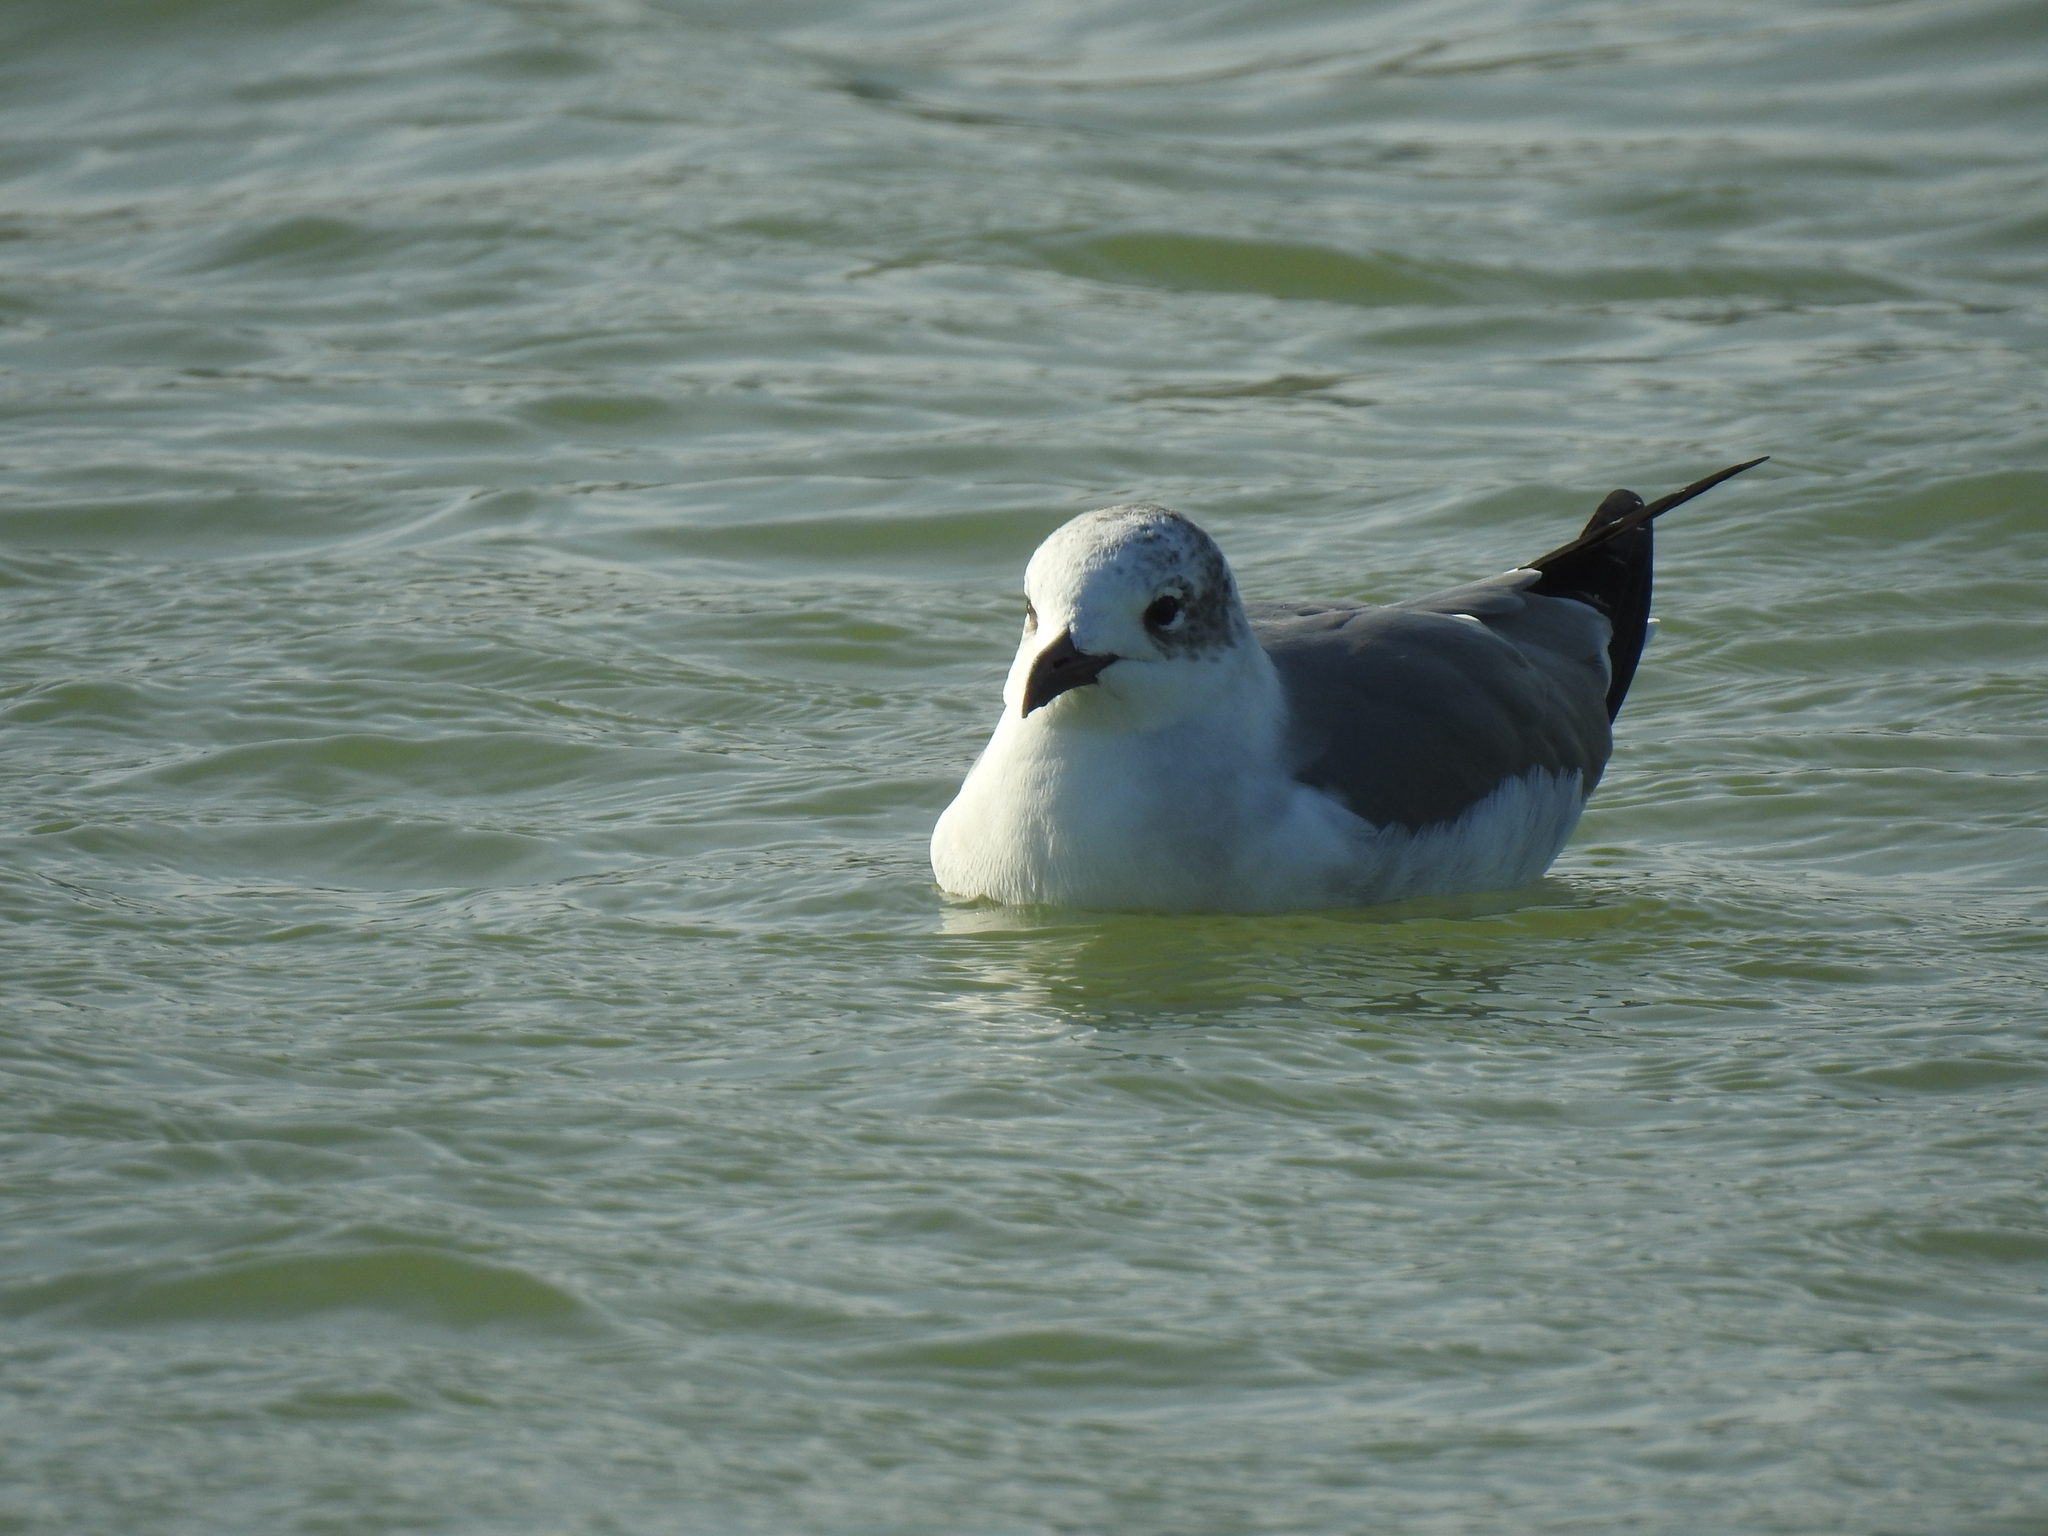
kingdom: Animalia
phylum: Chordata
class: Aves
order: Charadriiformes
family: Laridae
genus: Leucophaeus
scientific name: Leucophaeus atricilla
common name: Laughing gull
